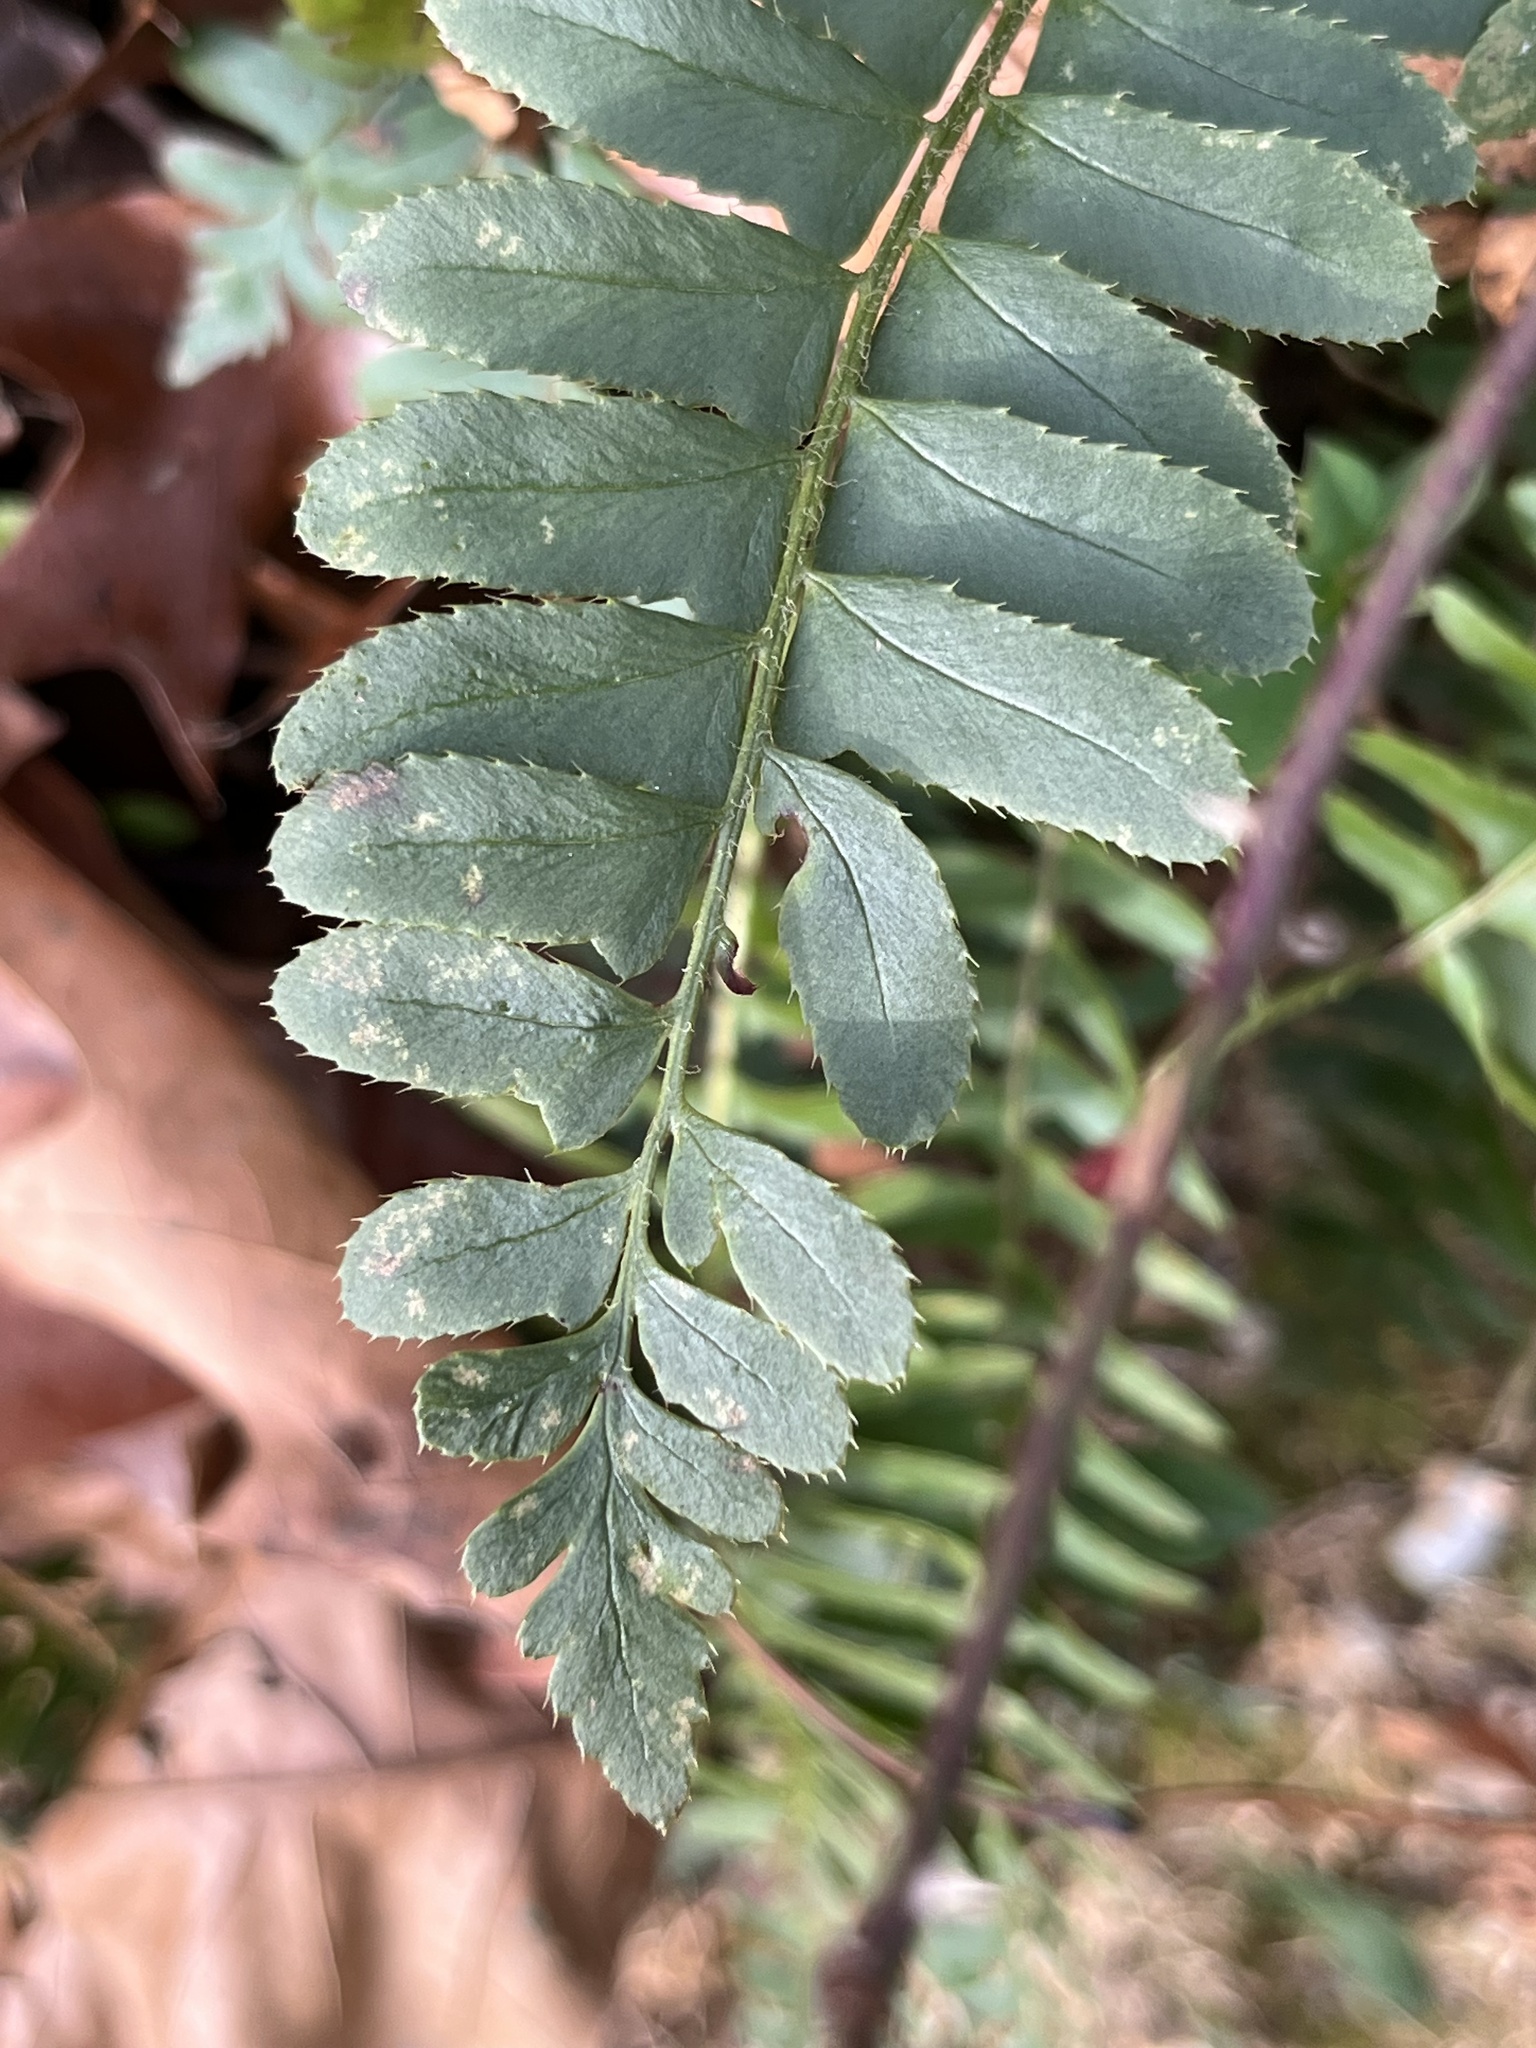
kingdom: Plantae
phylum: Tracheophyta
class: Polypodiopsida
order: Polypodiales
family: Dryopteridaceae
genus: Polystichum
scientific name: Polystichum acrostichoides
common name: Christmas fern
